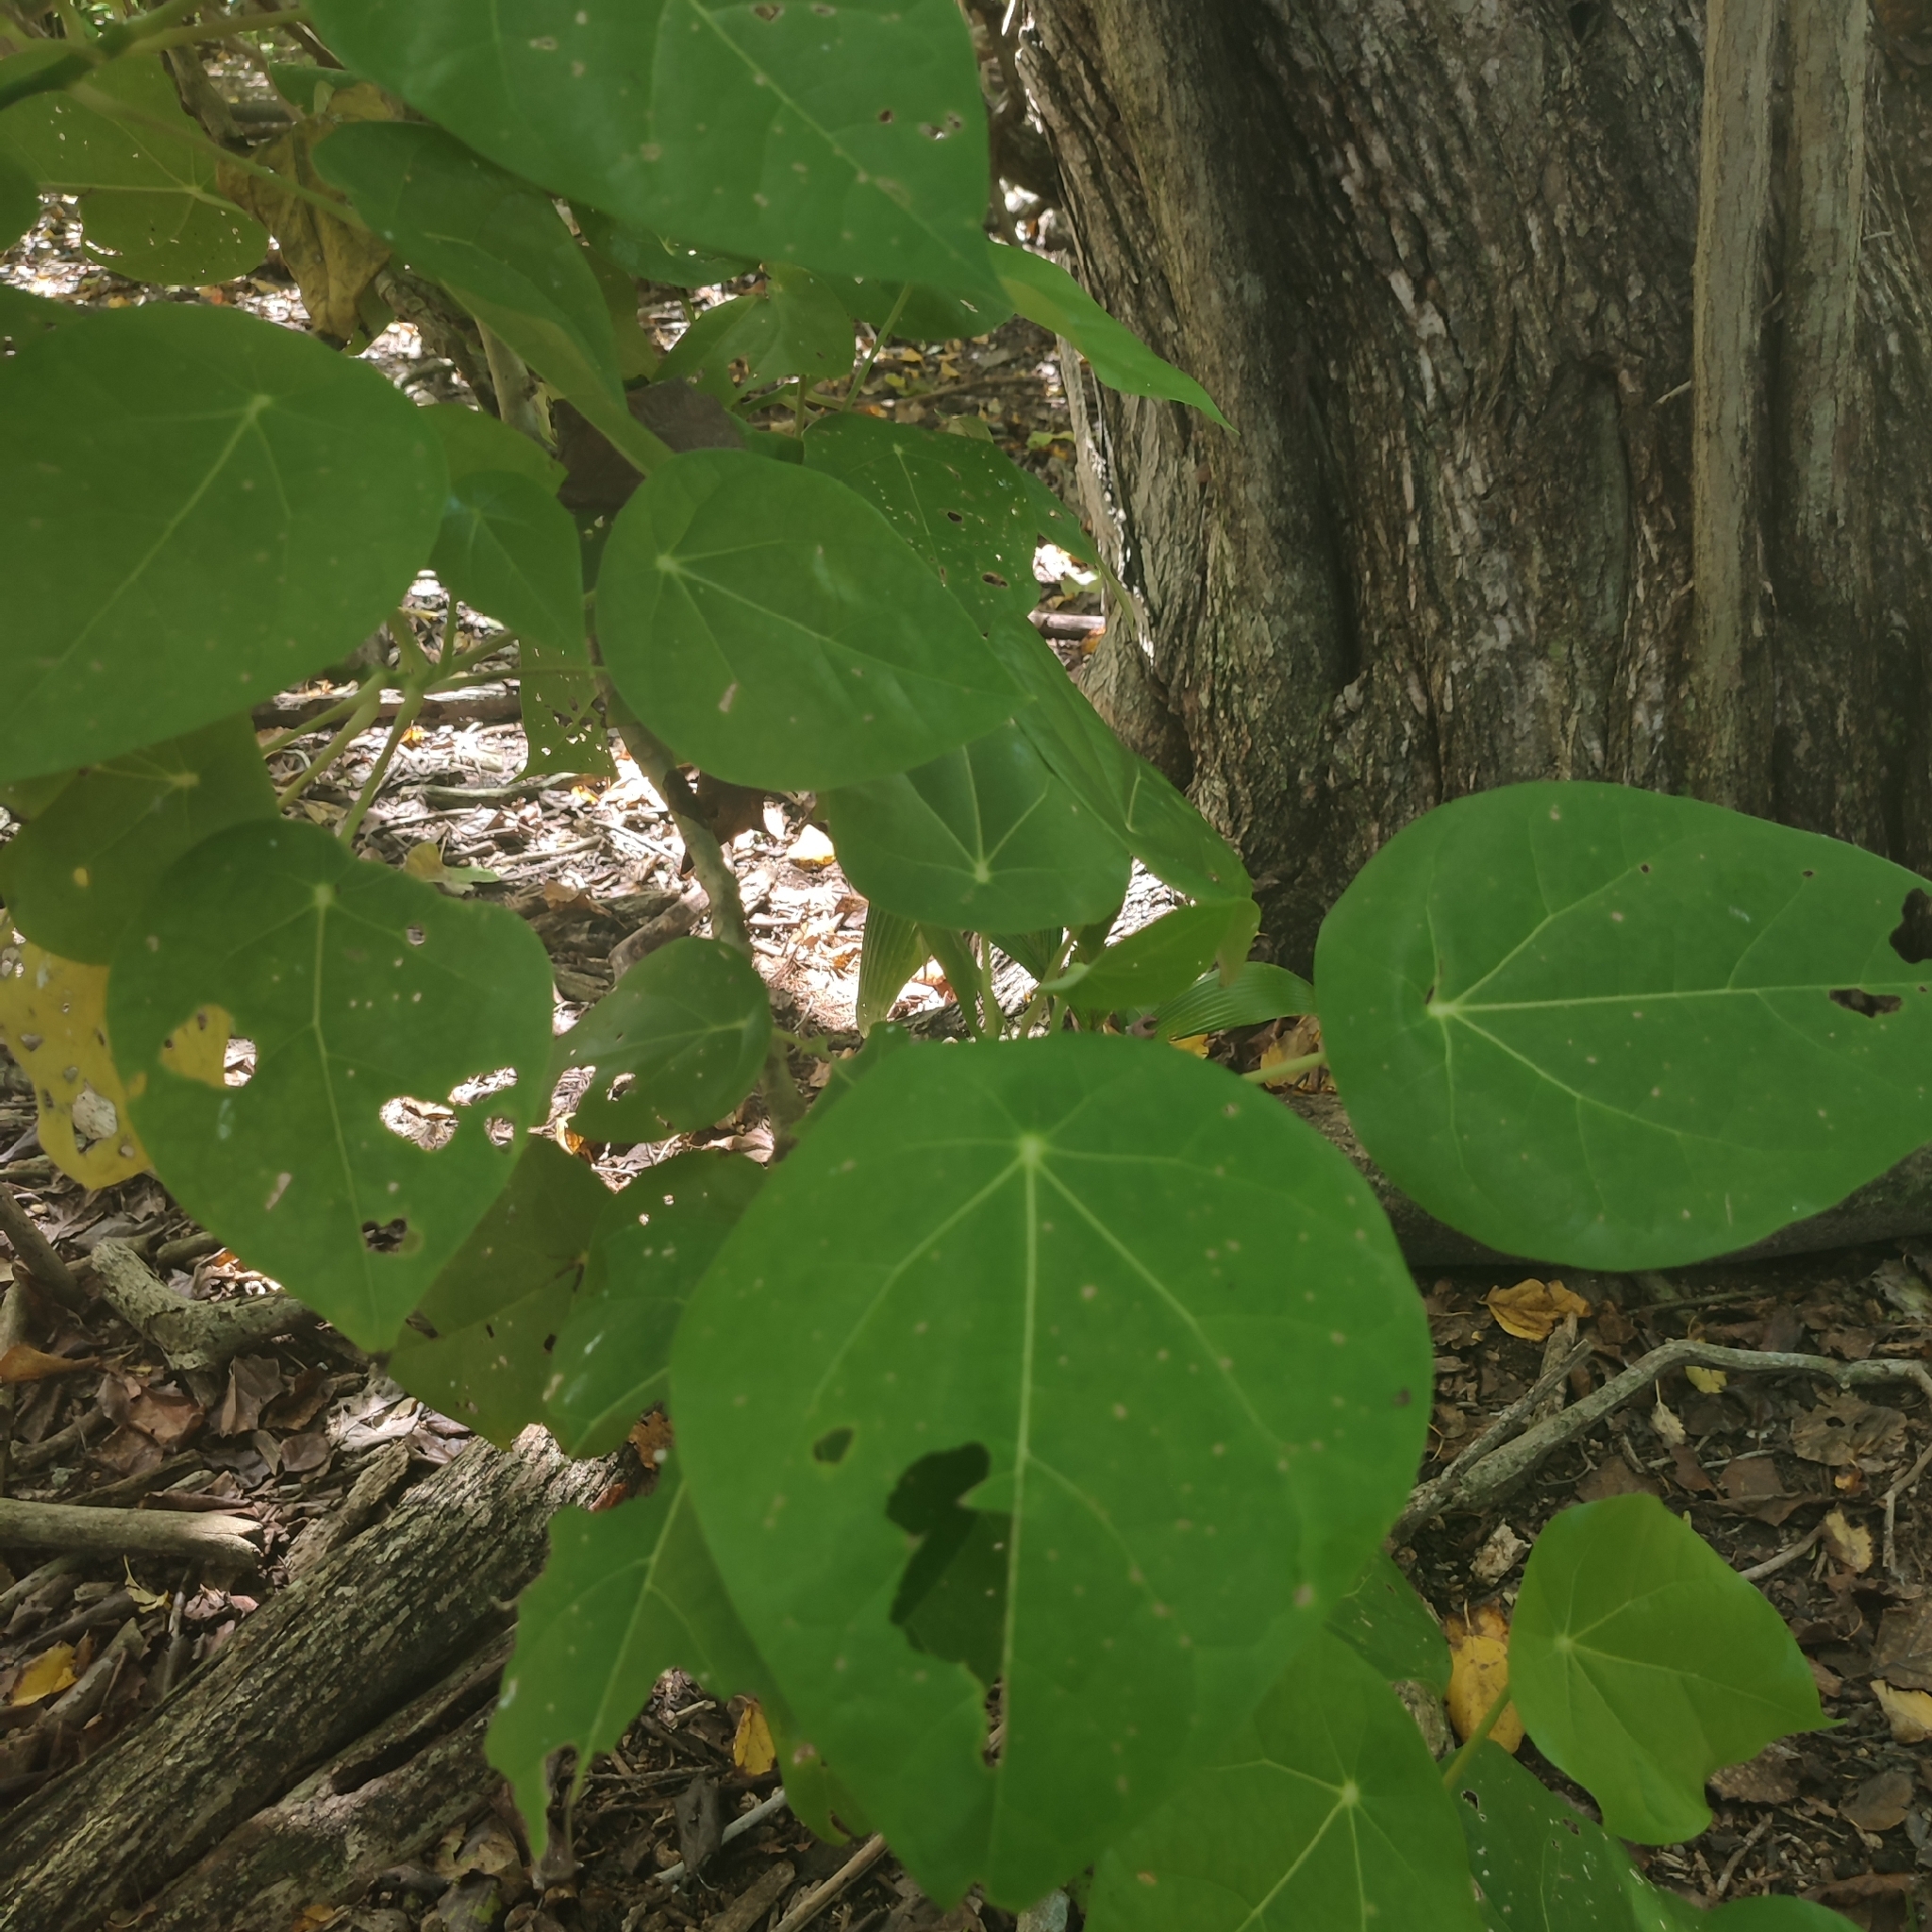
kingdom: Plantae
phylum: Tracheophyta
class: Magnoliopsida
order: Laurales
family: Hernandiaceae
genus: Hernandia
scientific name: Hernandia nymphaeifolia
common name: Sea hearse
